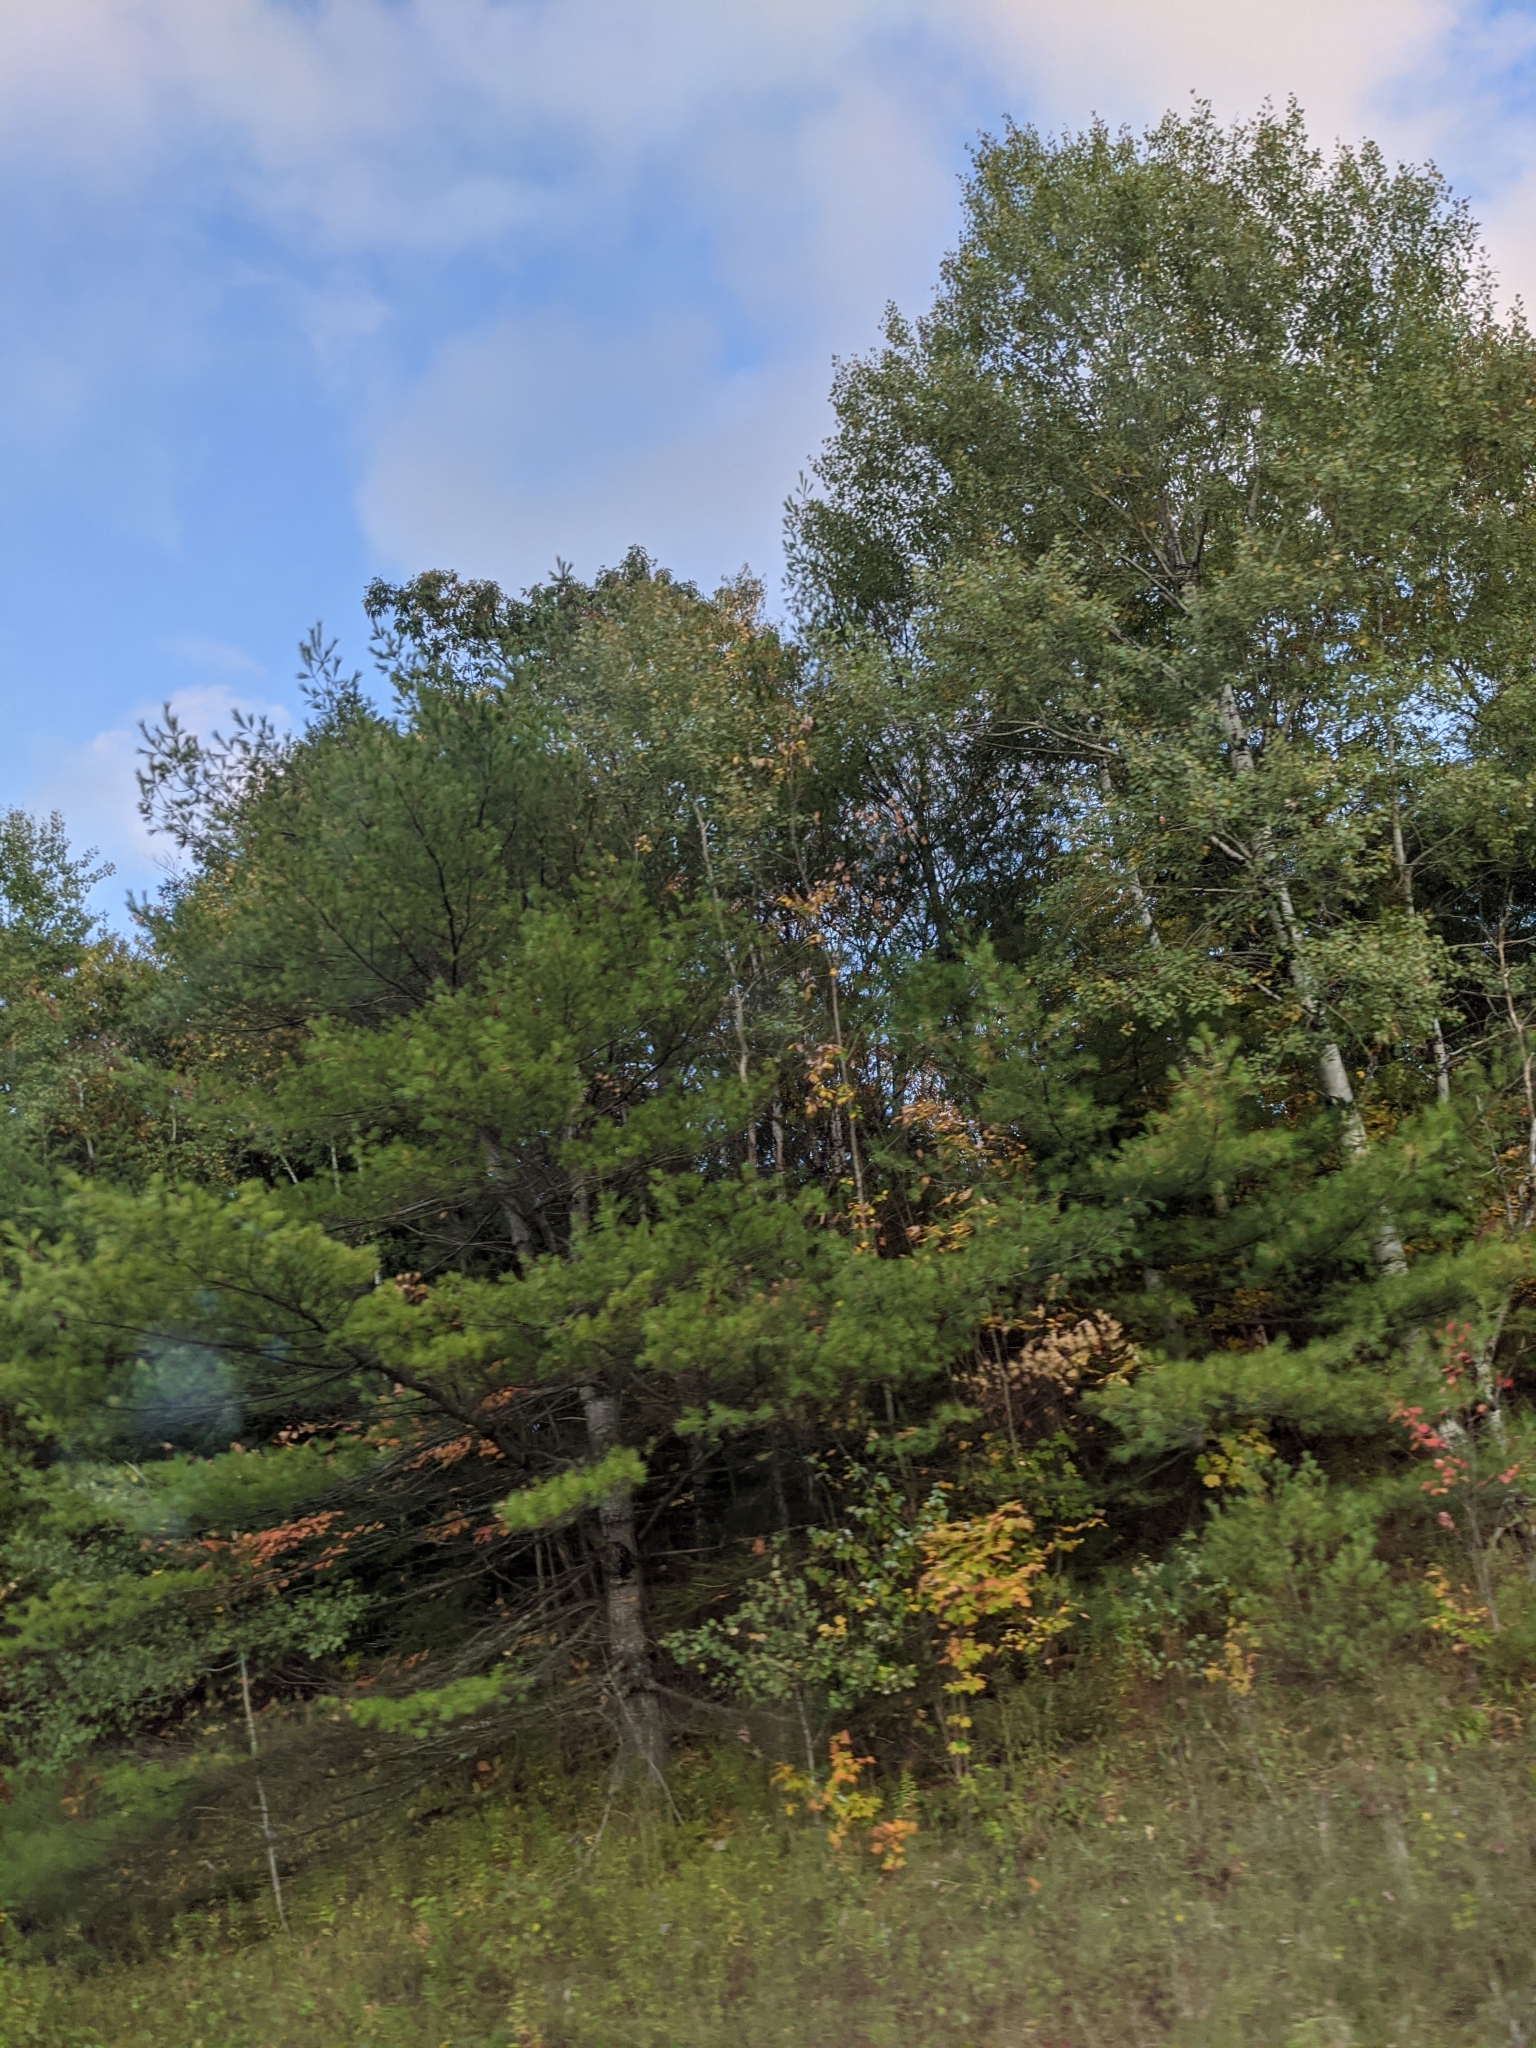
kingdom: Plantae
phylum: Tracheophyta
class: Pinopsida
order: Pinales
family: Pinaceae
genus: Pinus
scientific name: Pinus strobus
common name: Weymouth pine
